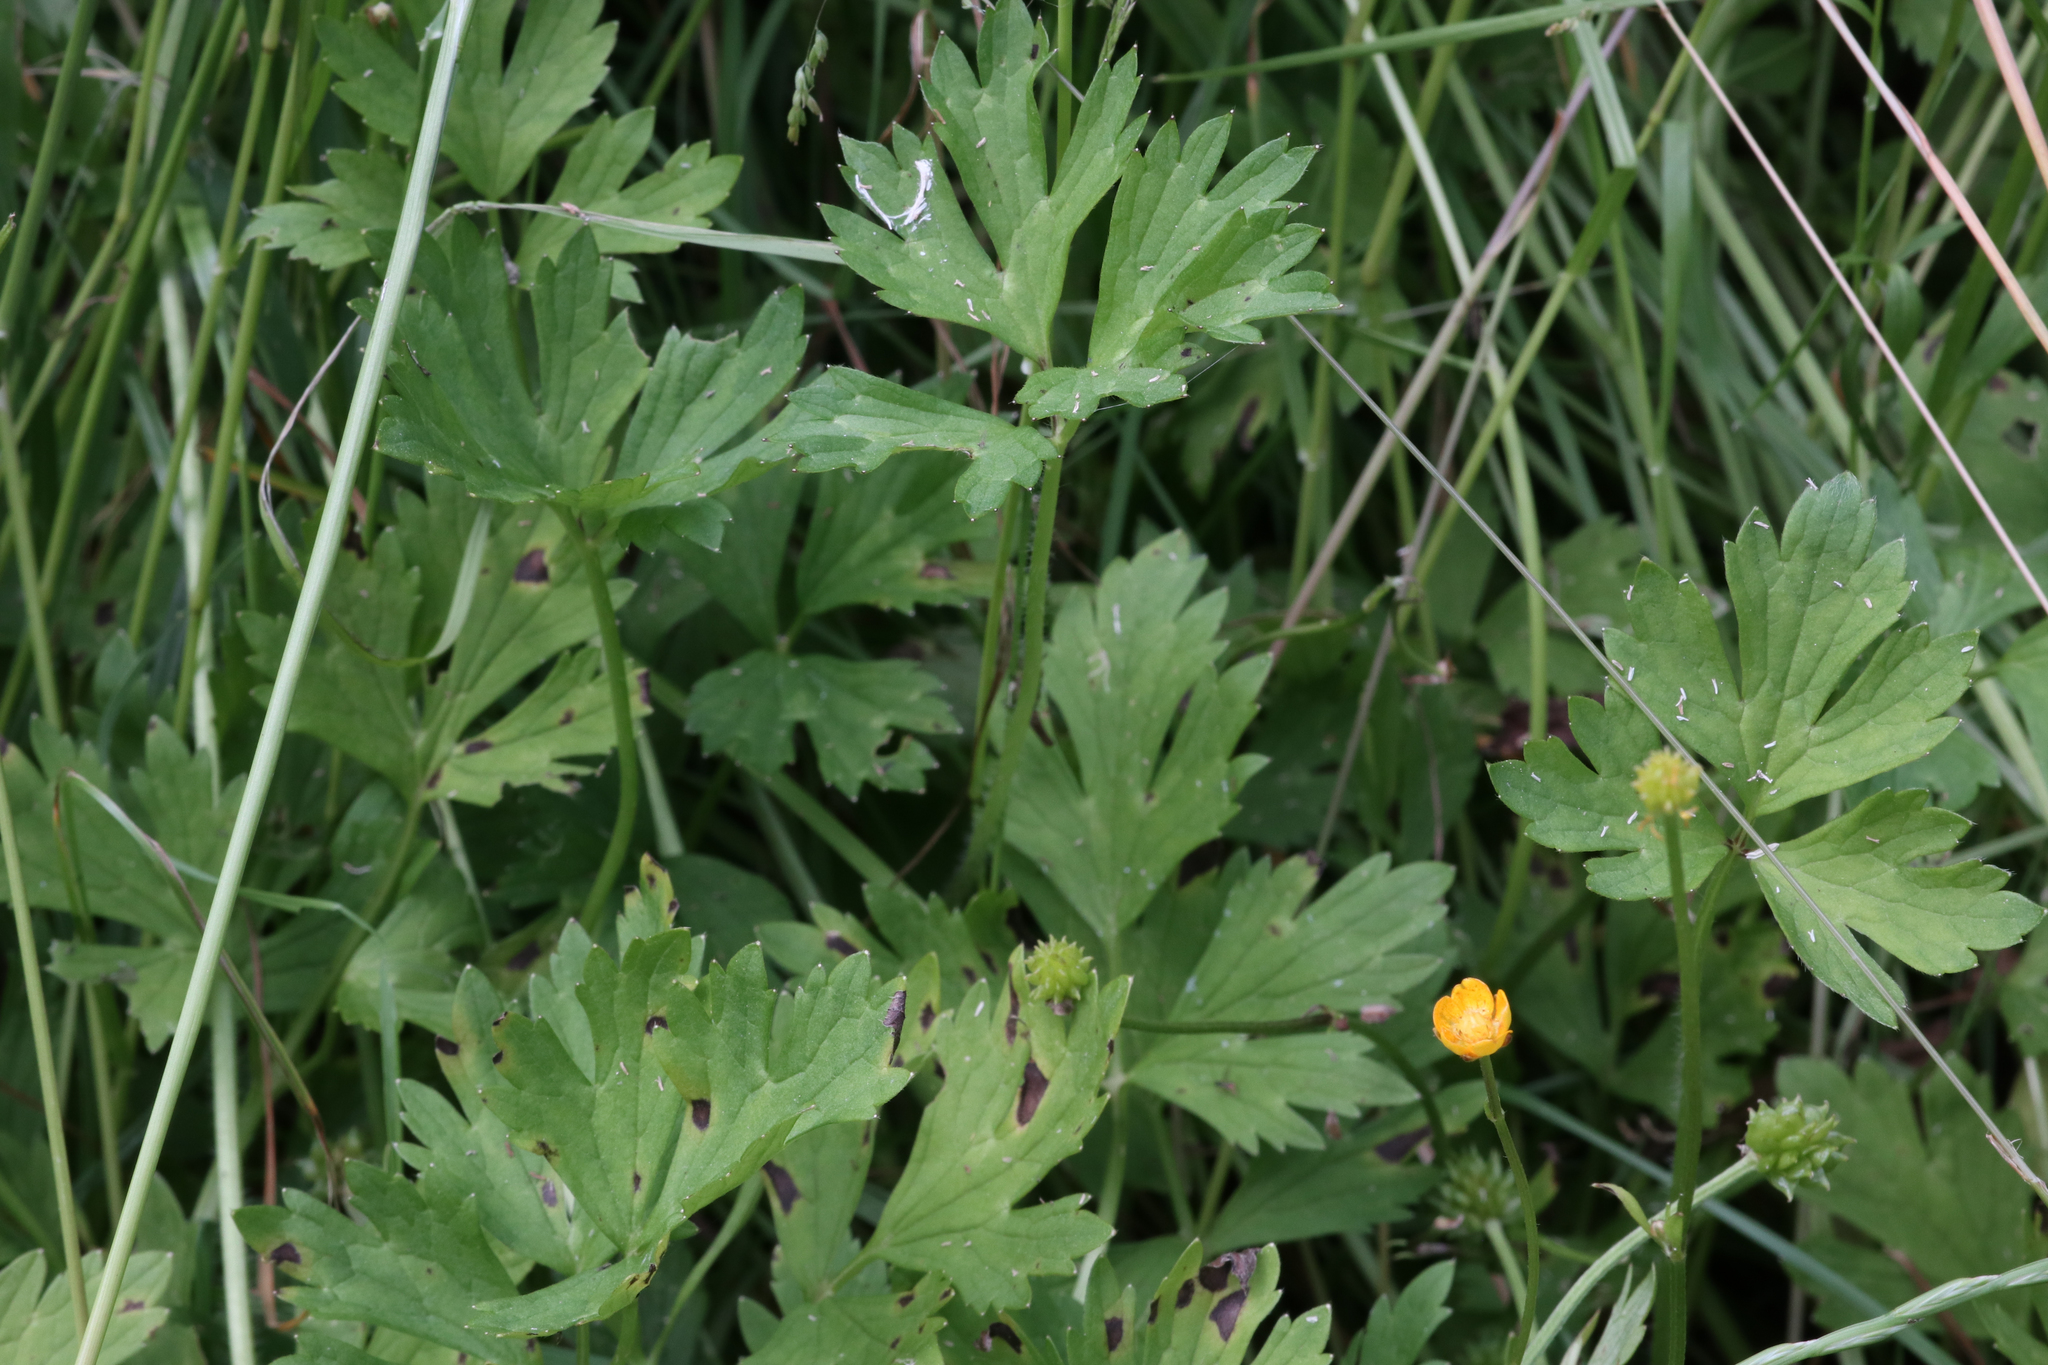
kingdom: Plantae
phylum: Tracheophyta
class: Magnoliopsida
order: Ranunculales
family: Ranunculaceae
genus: Ranunculus
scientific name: Ranunculus repens
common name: Creeping buttercup
